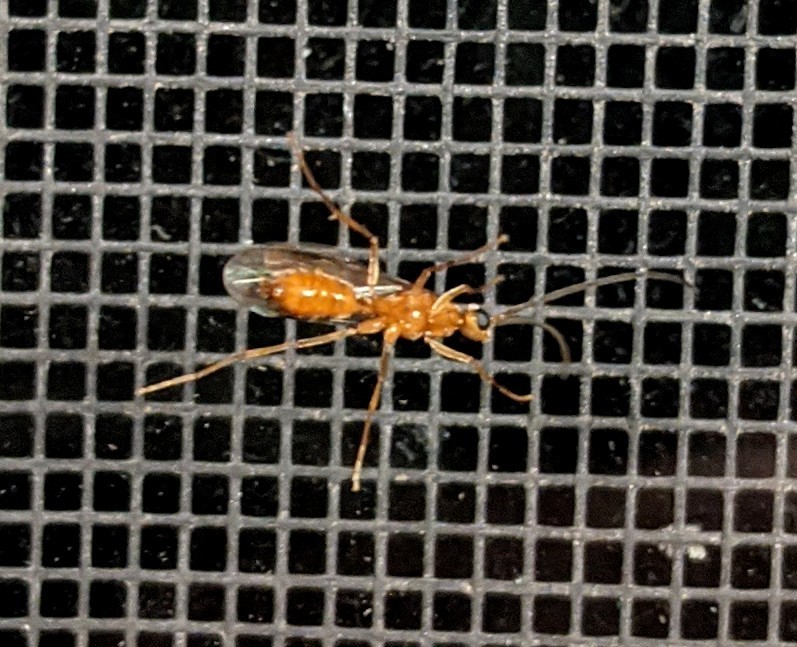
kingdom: Animalia
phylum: Arthropoda
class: Insecta
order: Hymenoptera
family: Formicidae
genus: Leptogenys
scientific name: Leptogenys elongata
